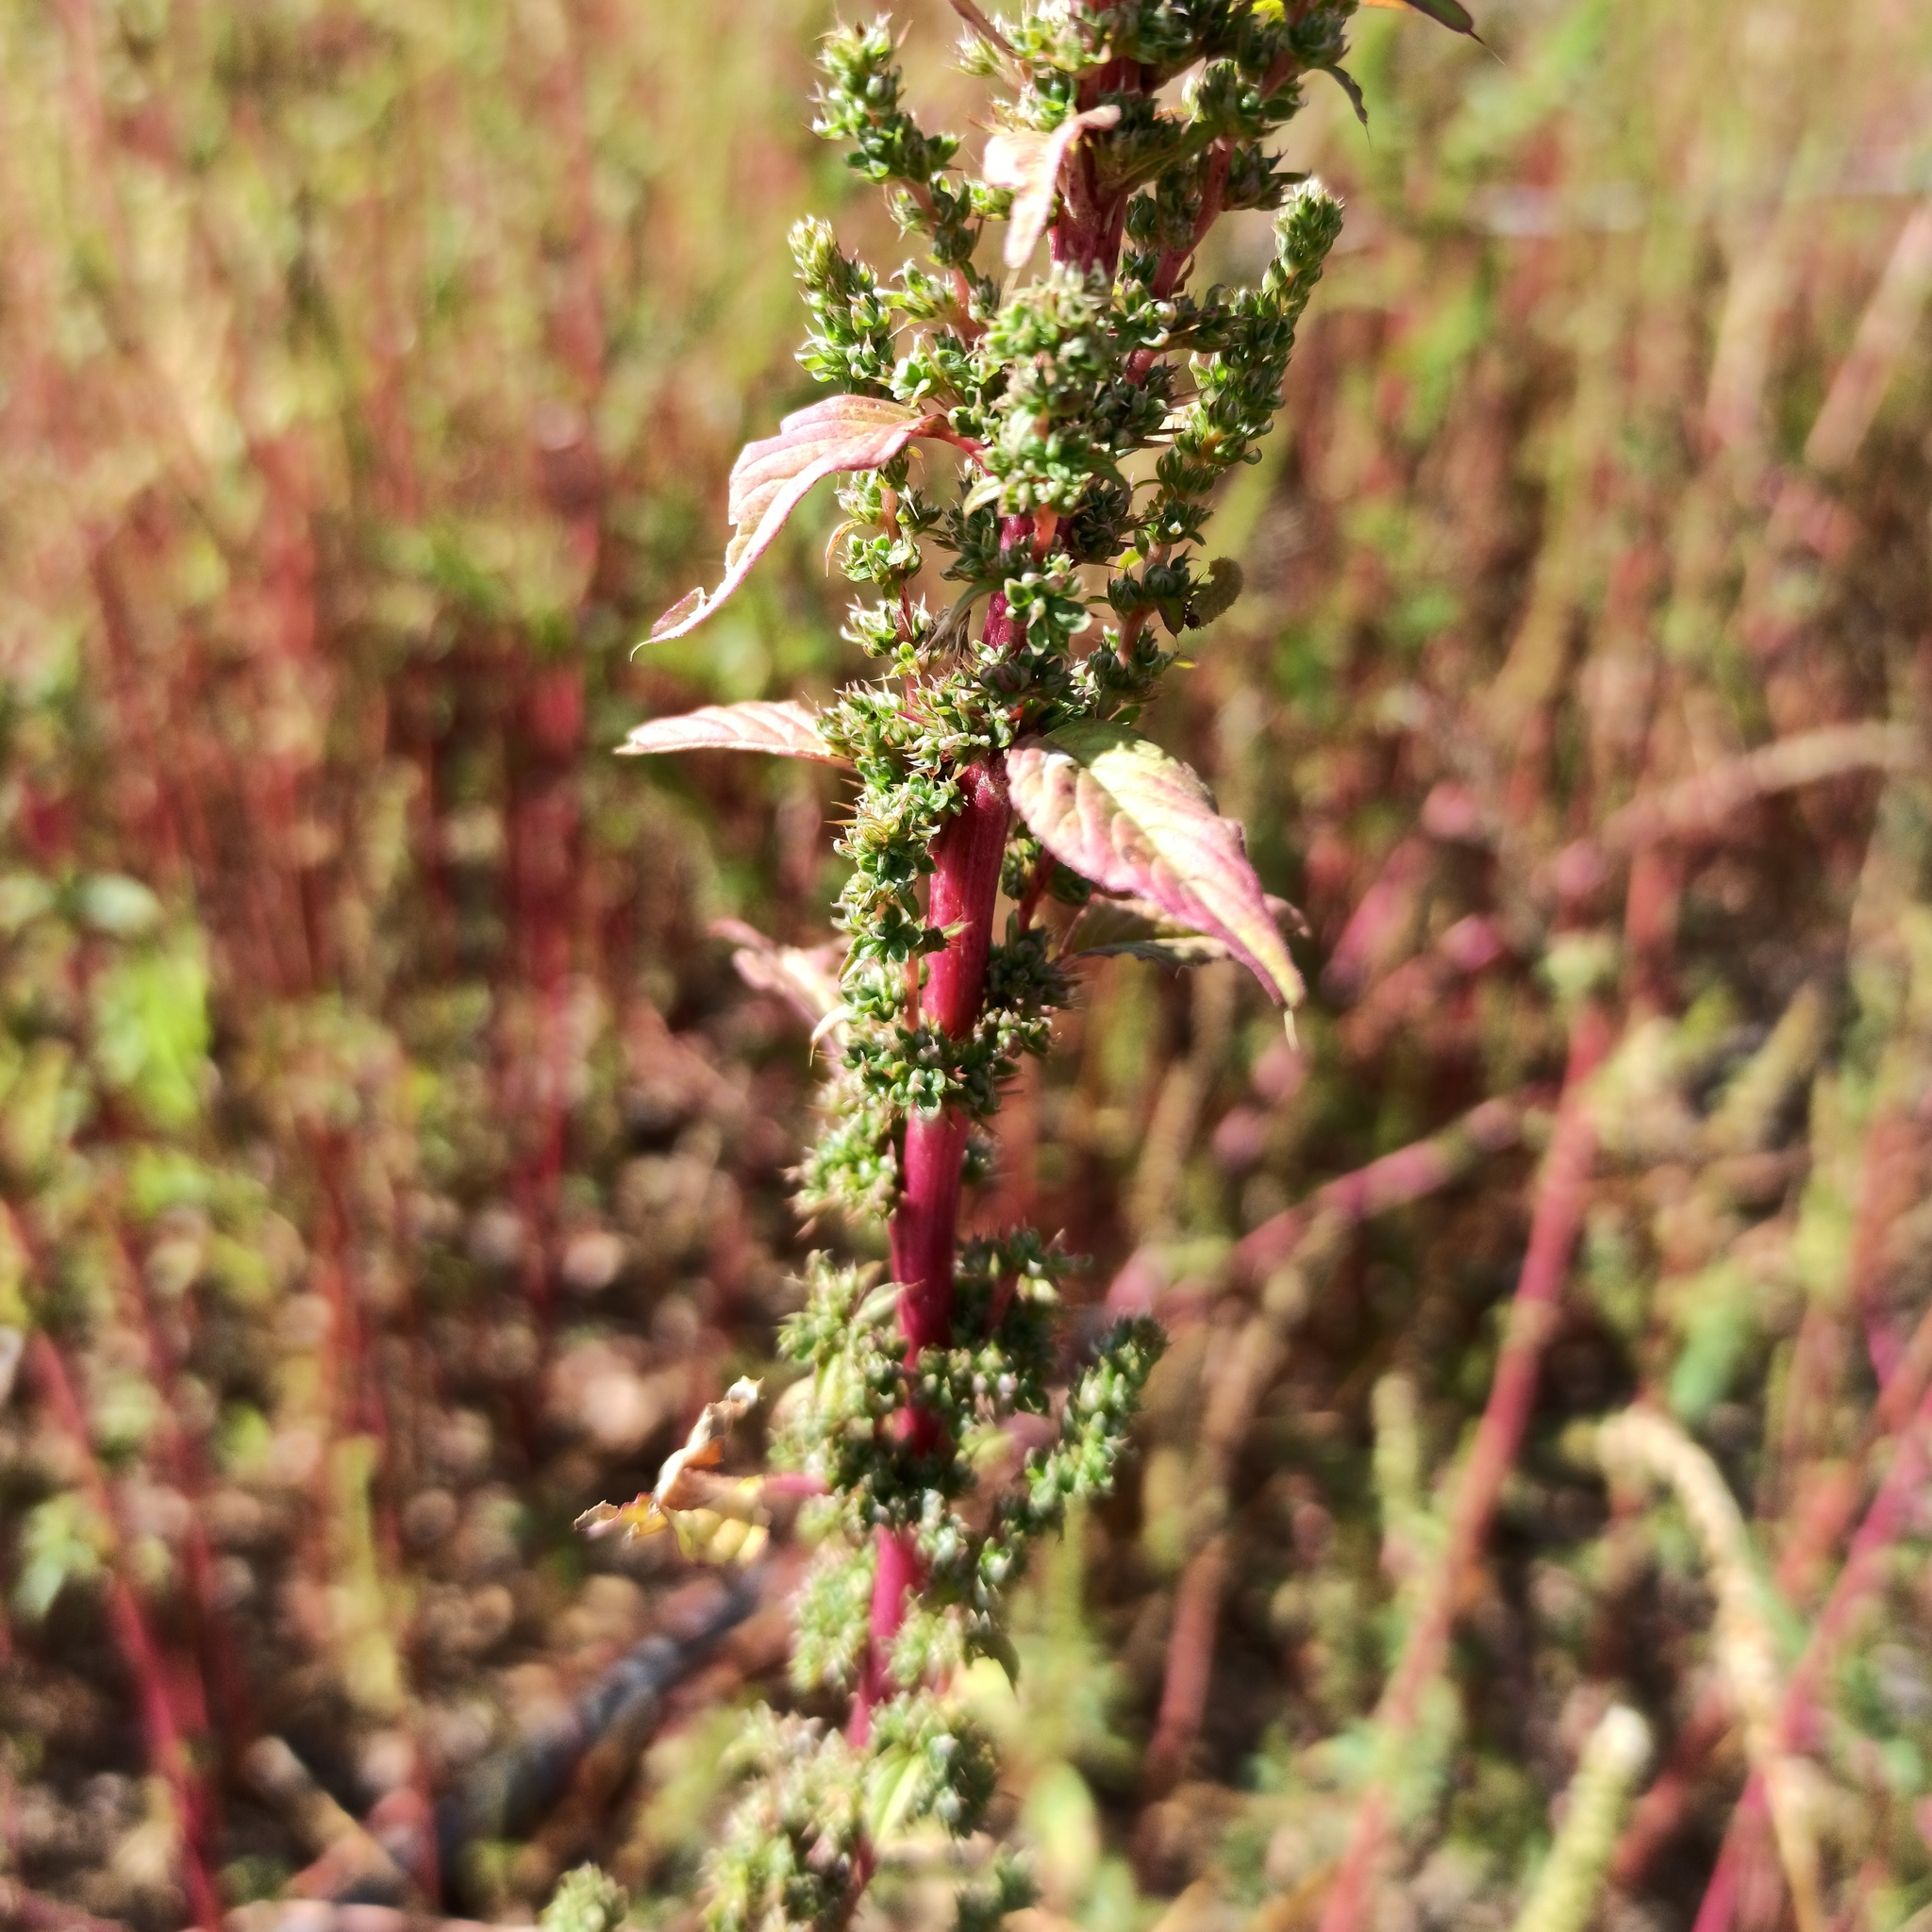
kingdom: Plantae
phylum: Tracheophyta
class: Magnoliopsida
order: Caryophyllales
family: Amaranthaceae
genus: Amaranthus
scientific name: Amaranthus hybridus
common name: Green amaranth
